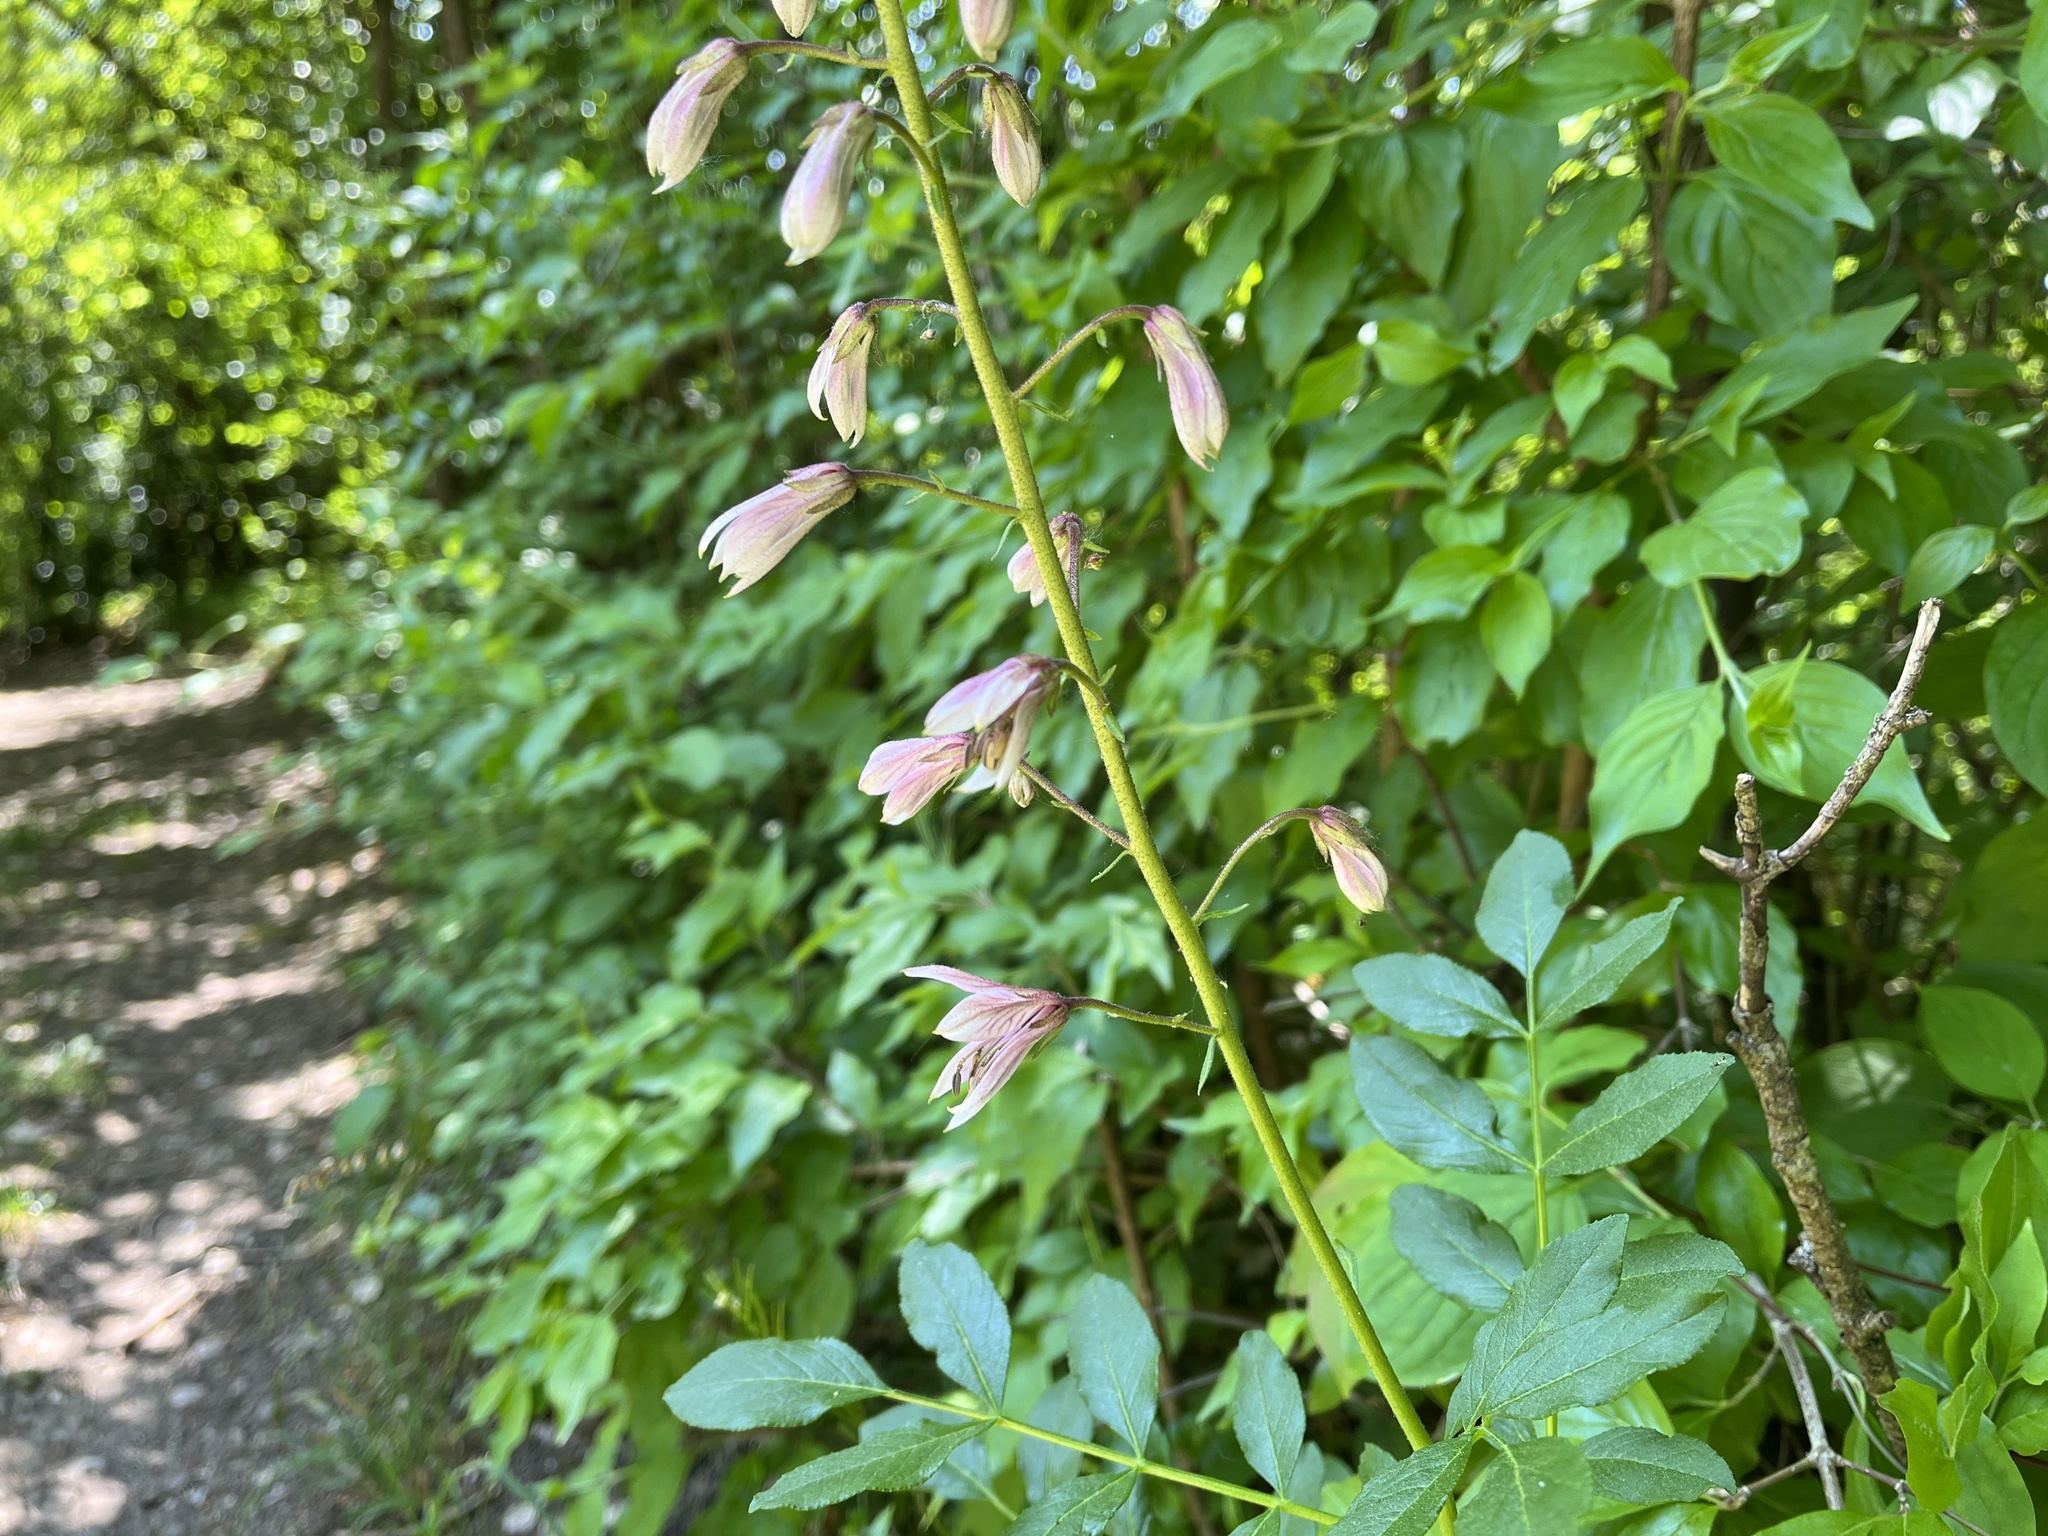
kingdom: Plantae
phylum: Tracheophyta
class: Magnoliopsida
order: Sapindales
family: Rutaceae
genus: Dictamnus
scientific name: Dictamnus albus
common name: Gasplant
